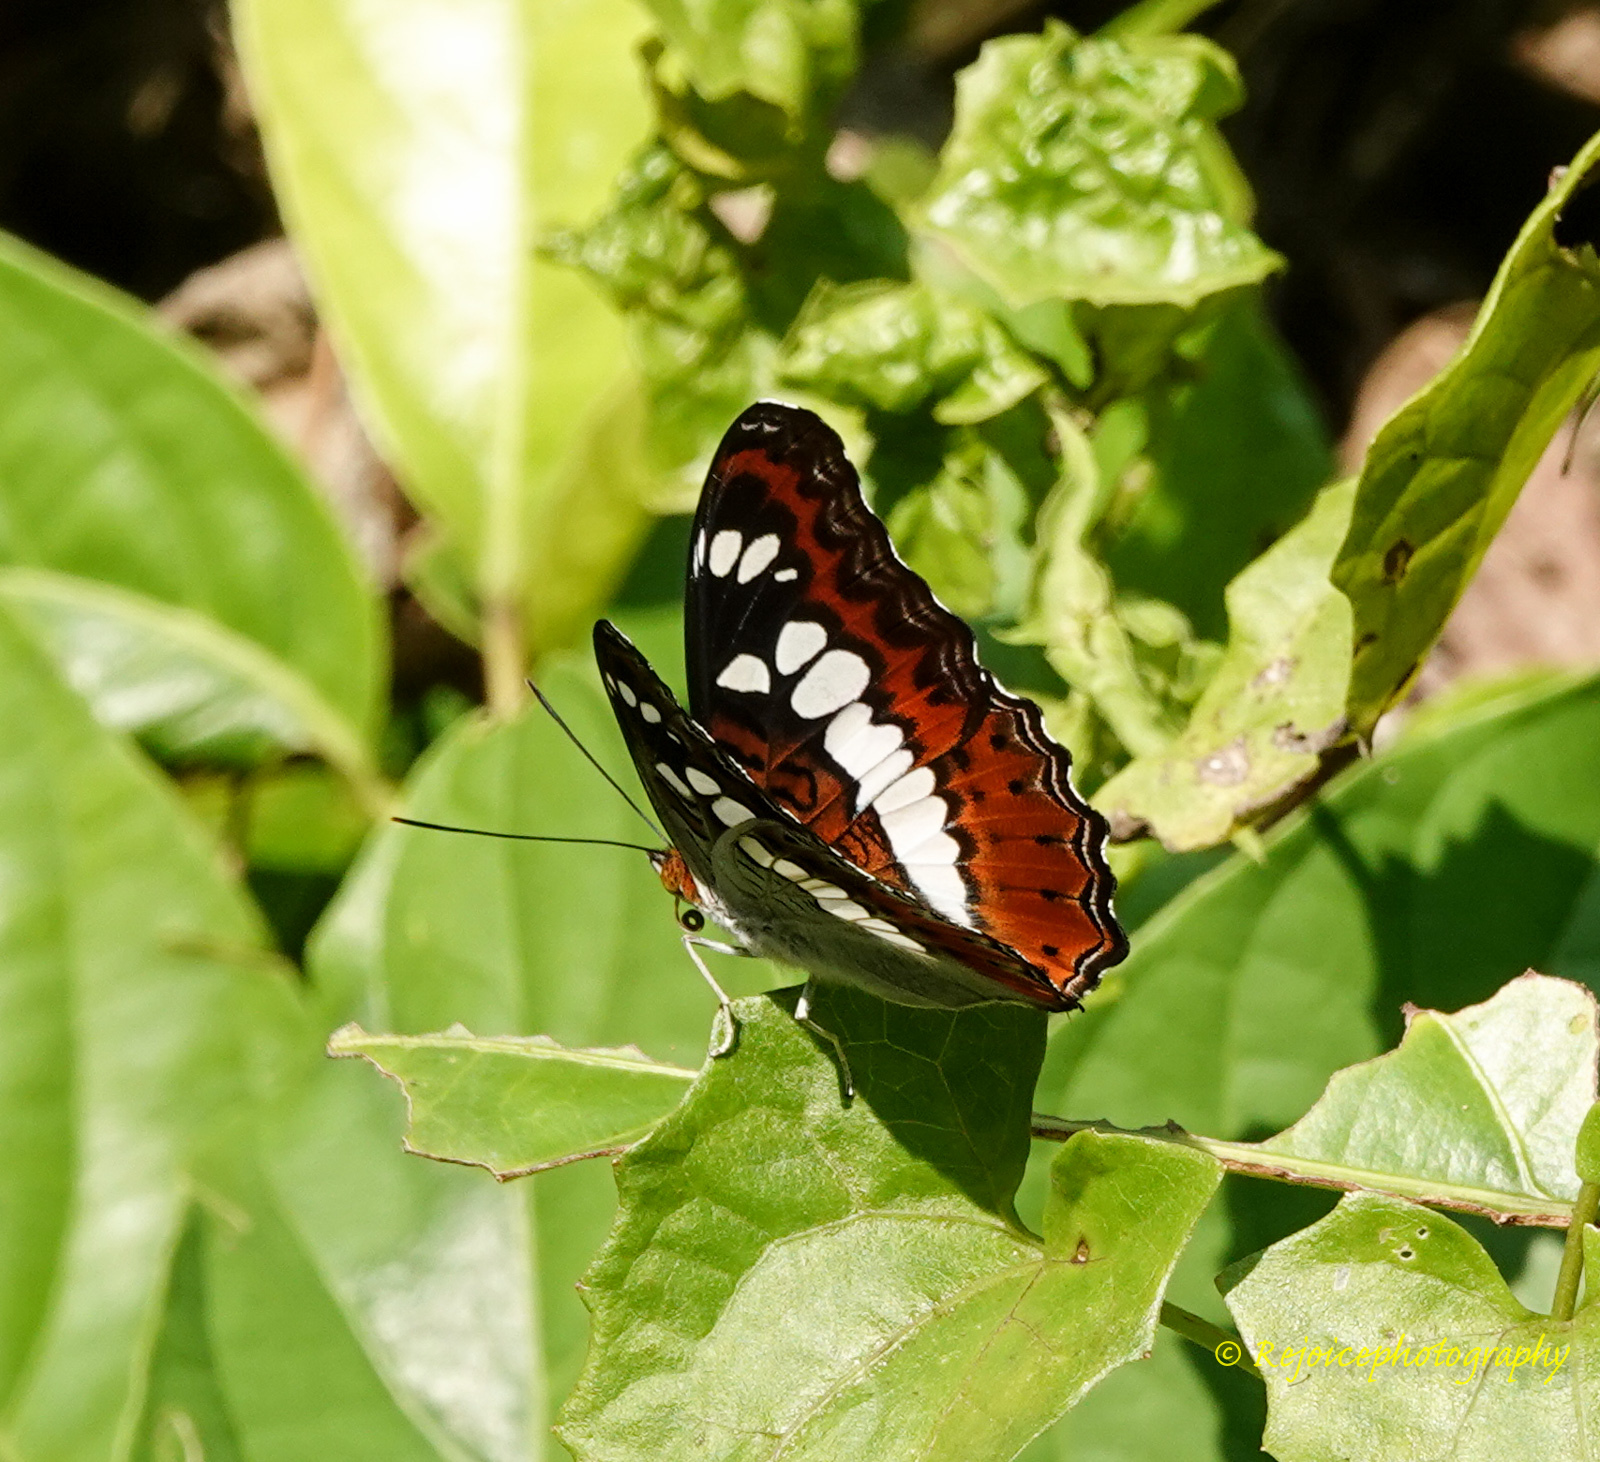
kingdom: Animalia
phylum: Arthropoda
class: Insecta
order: Lepidoptera
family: Nymphalidae
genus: Limenitis
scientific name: Limenitis Moduza procris
